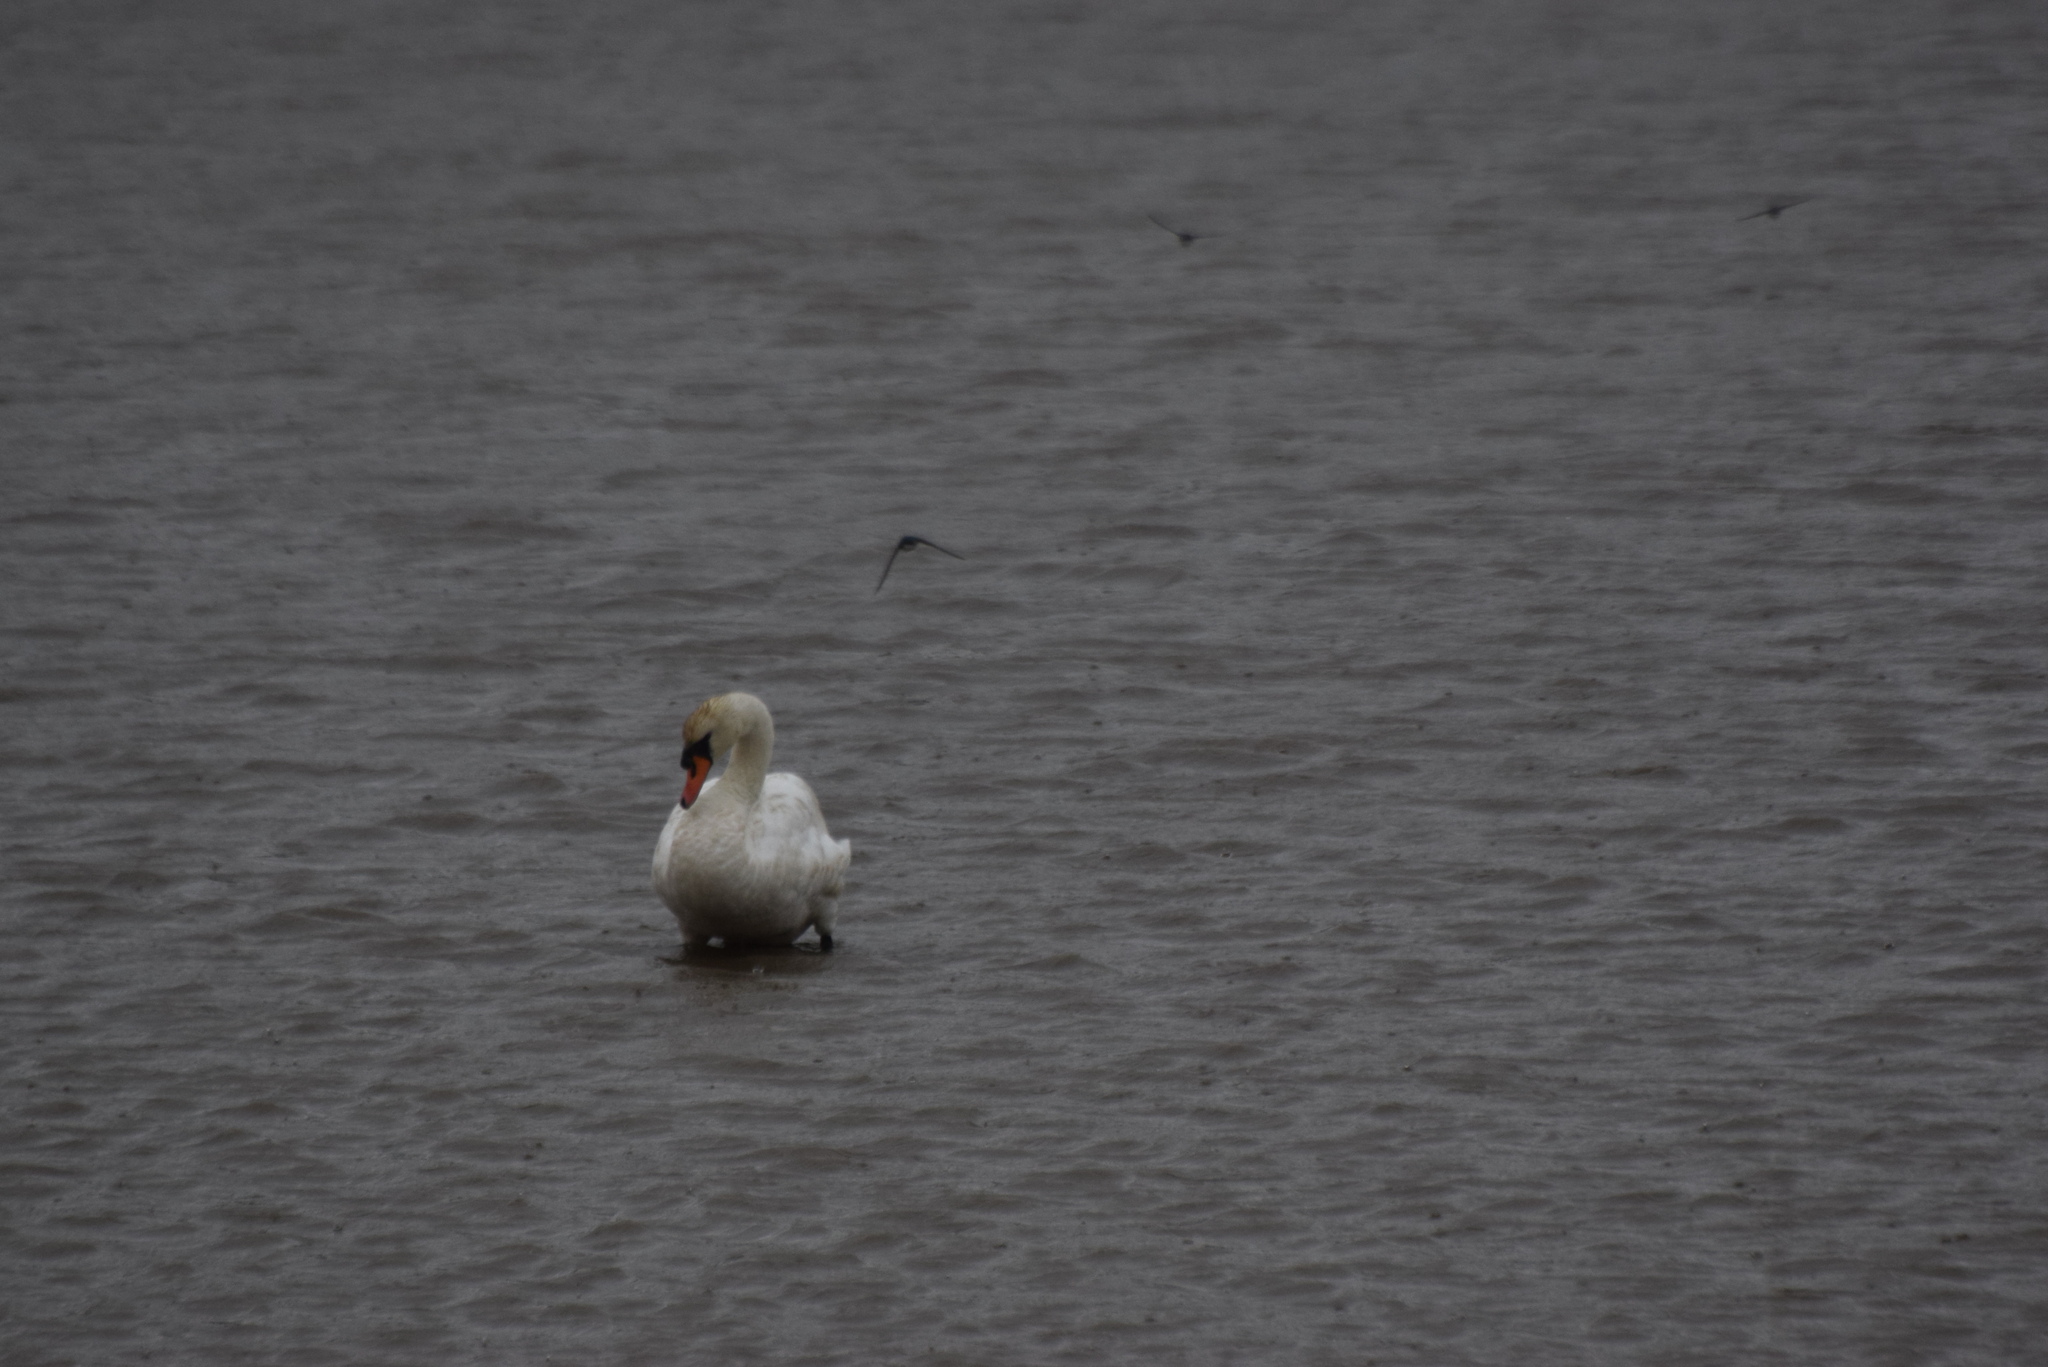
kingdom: Animalia
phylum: Chordata
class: Aves
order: Anseriformes
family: Anatidae
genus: Cygnus
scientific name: Cygnus olor
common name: Mute swan
